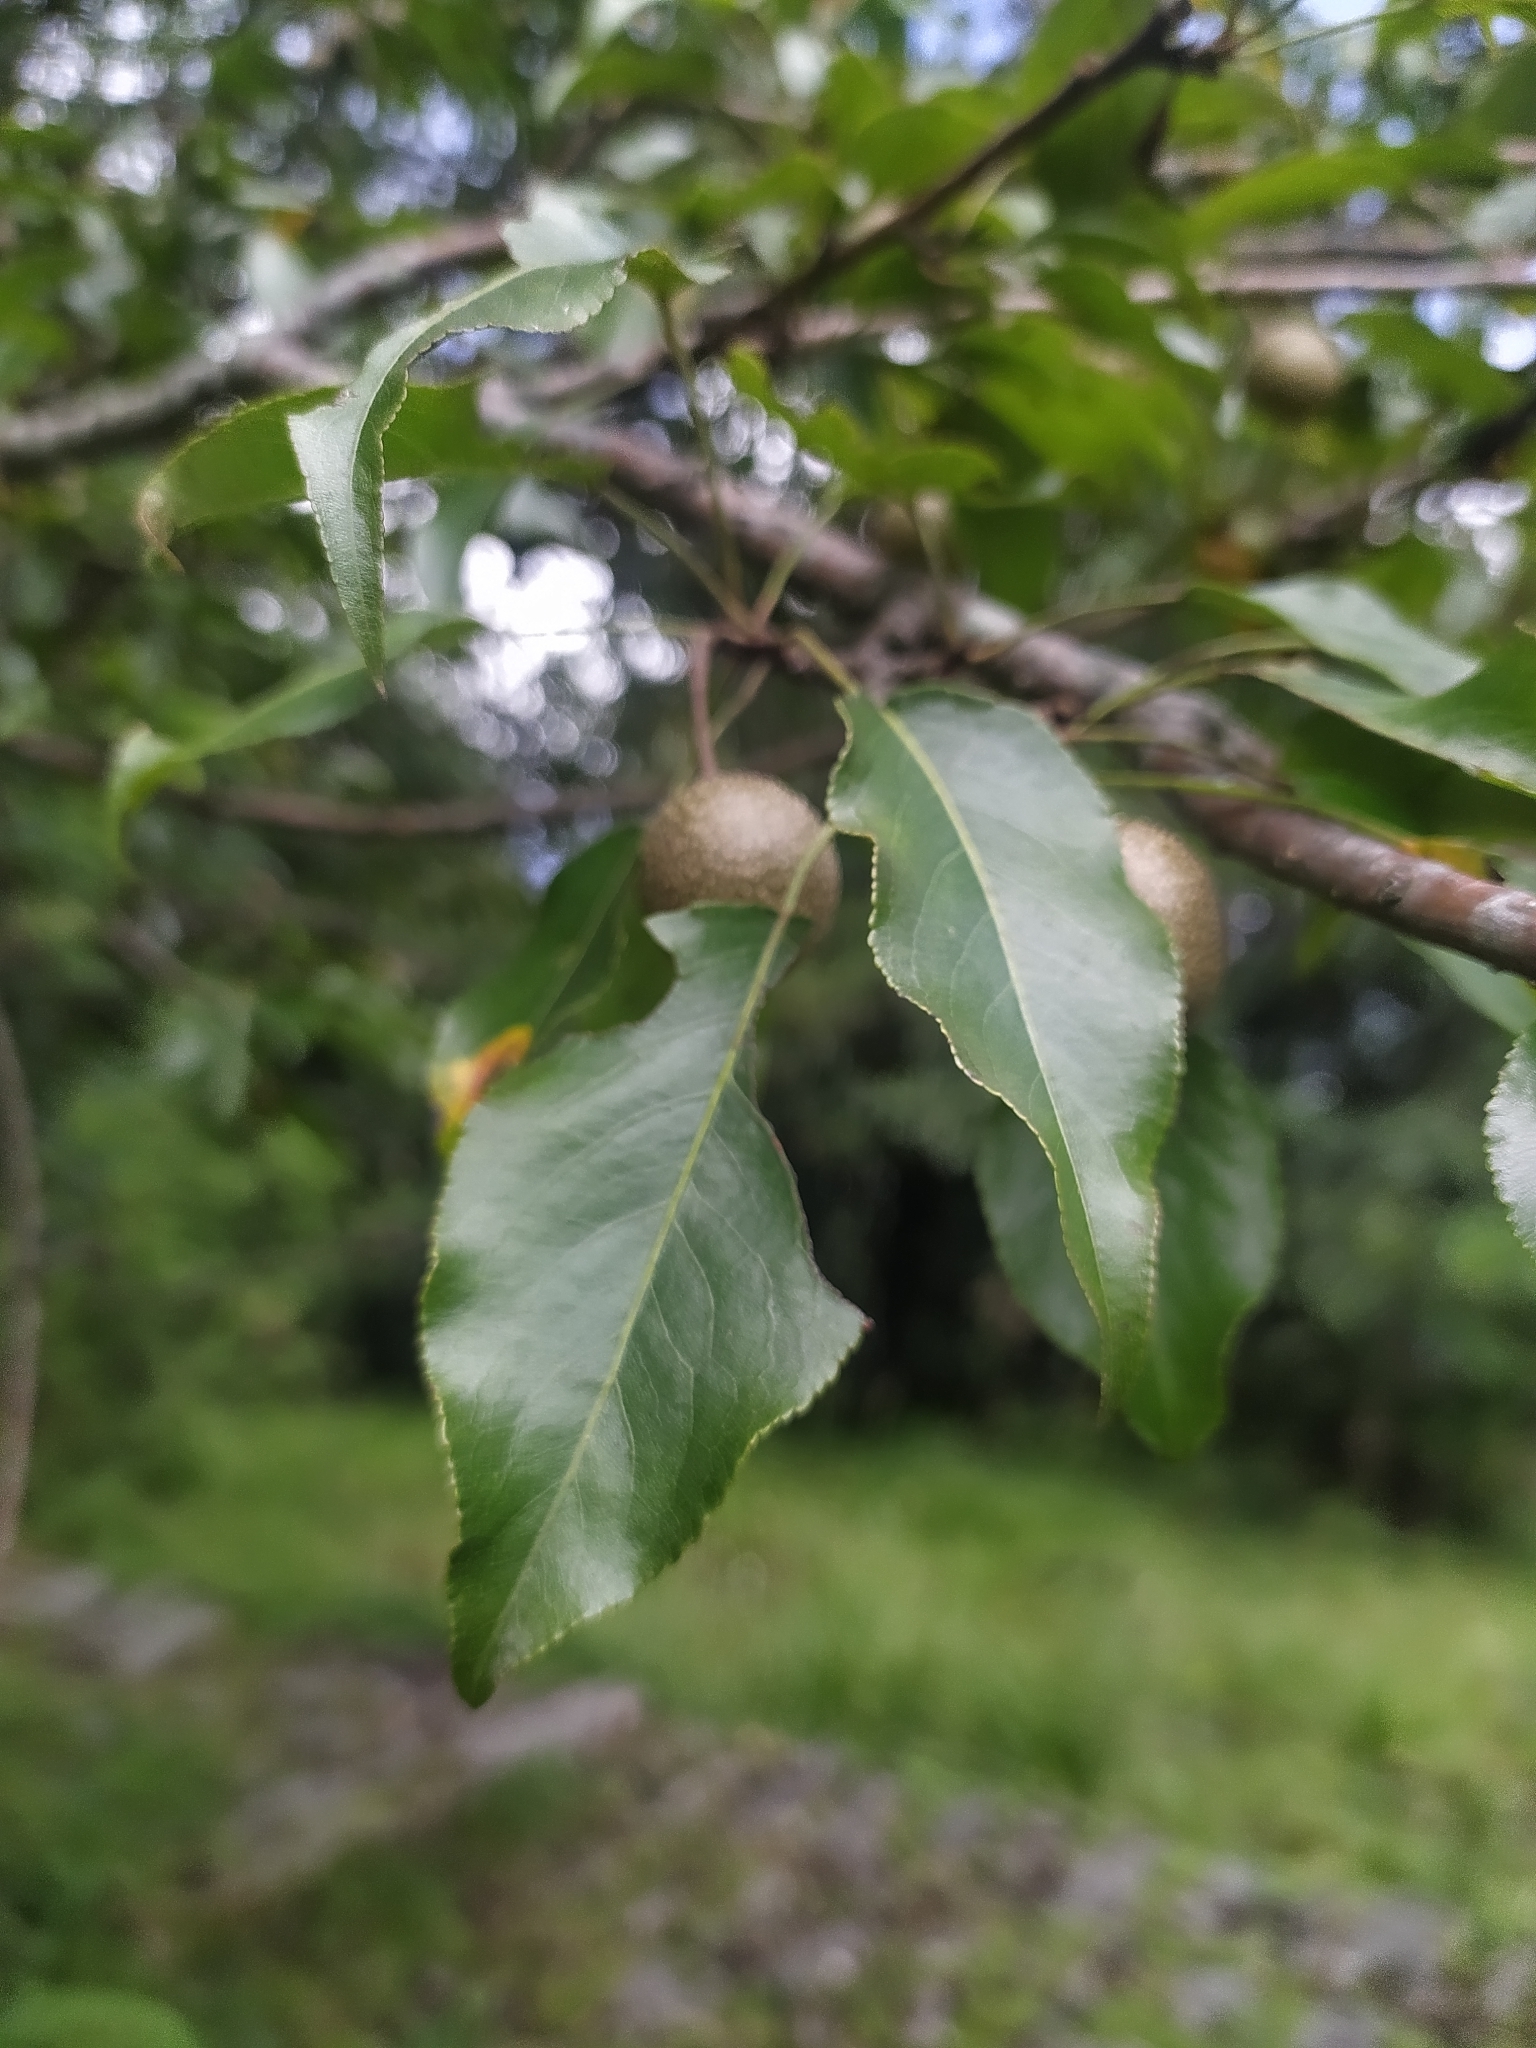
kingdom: Plantae
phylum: Tracheophyta
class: Magnoliopsida
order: Rosales
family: Rosaceae
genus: Pyrus
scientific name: Pyrus pashia
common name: Himalayan pear
